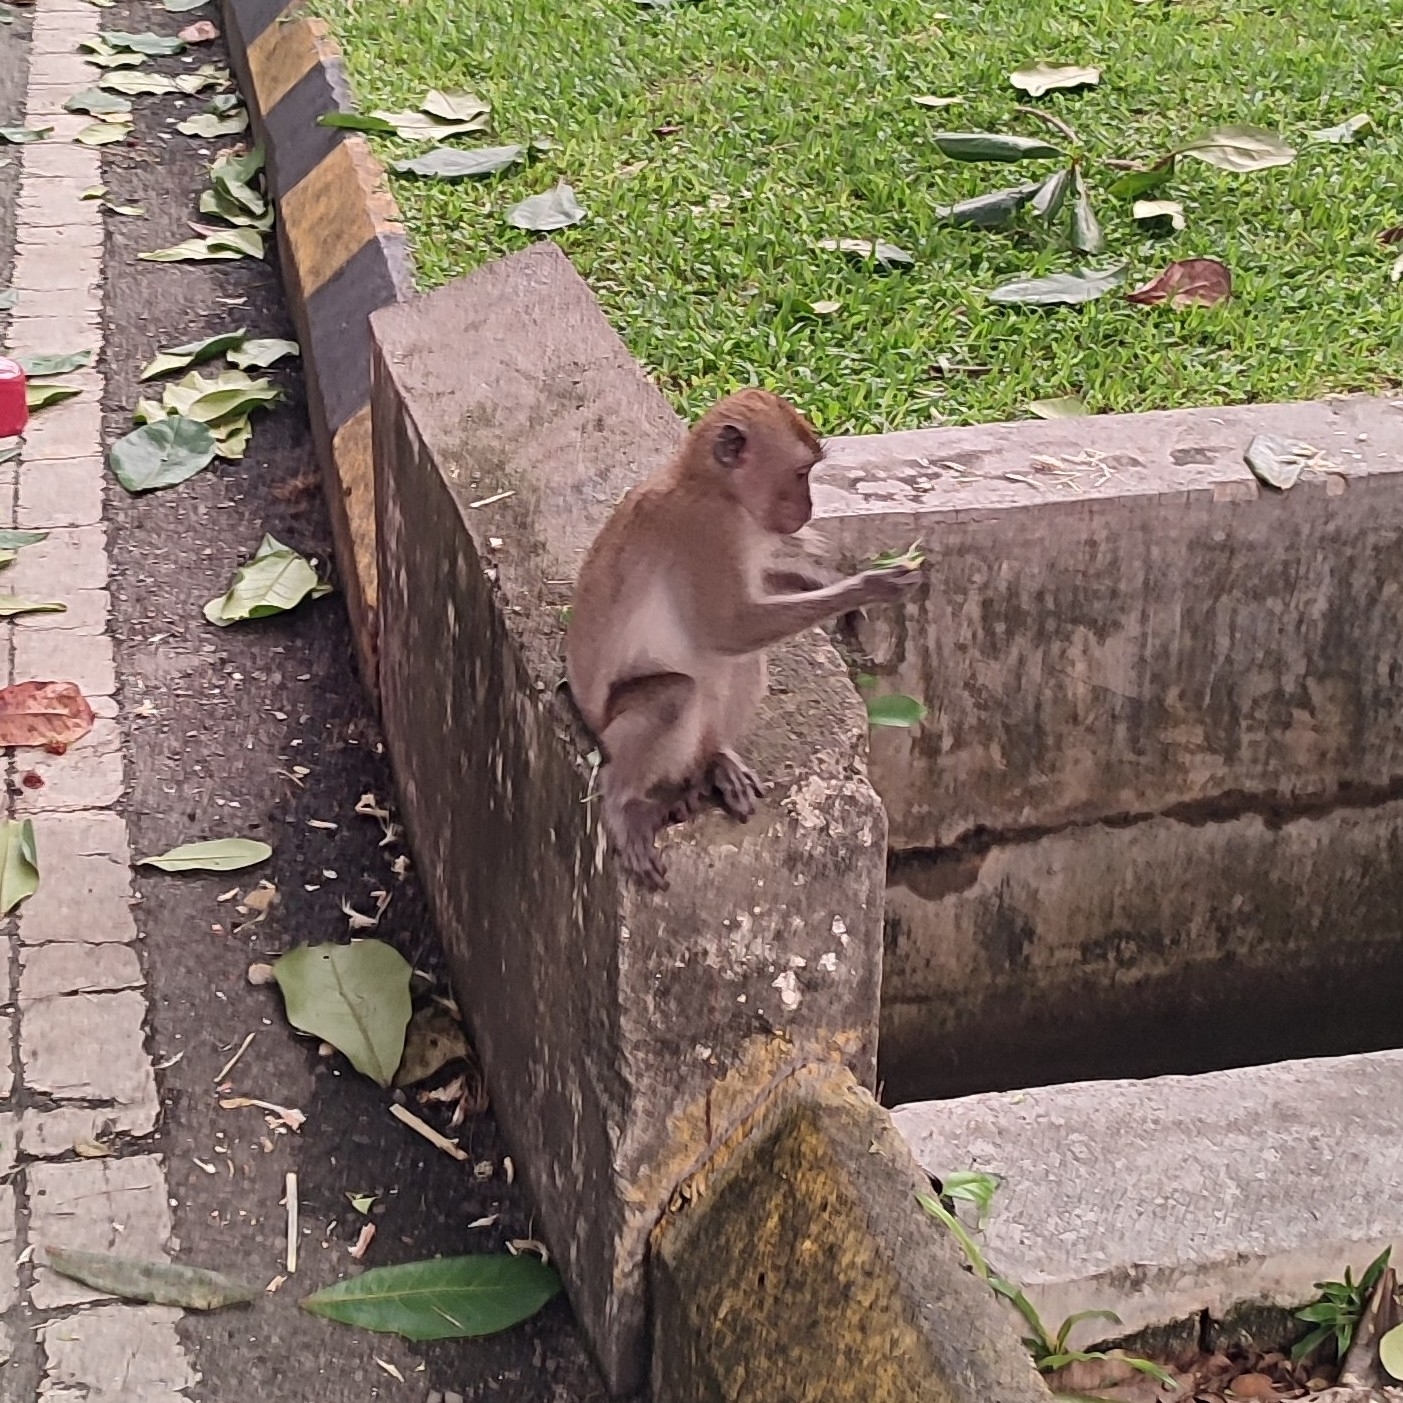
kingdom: Animalia
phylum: Chordata
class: Mammalia
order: Primates
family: Cercopithecidae
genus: Macaca
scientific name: Macaca fascicularis
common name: Crab-eating macaque
